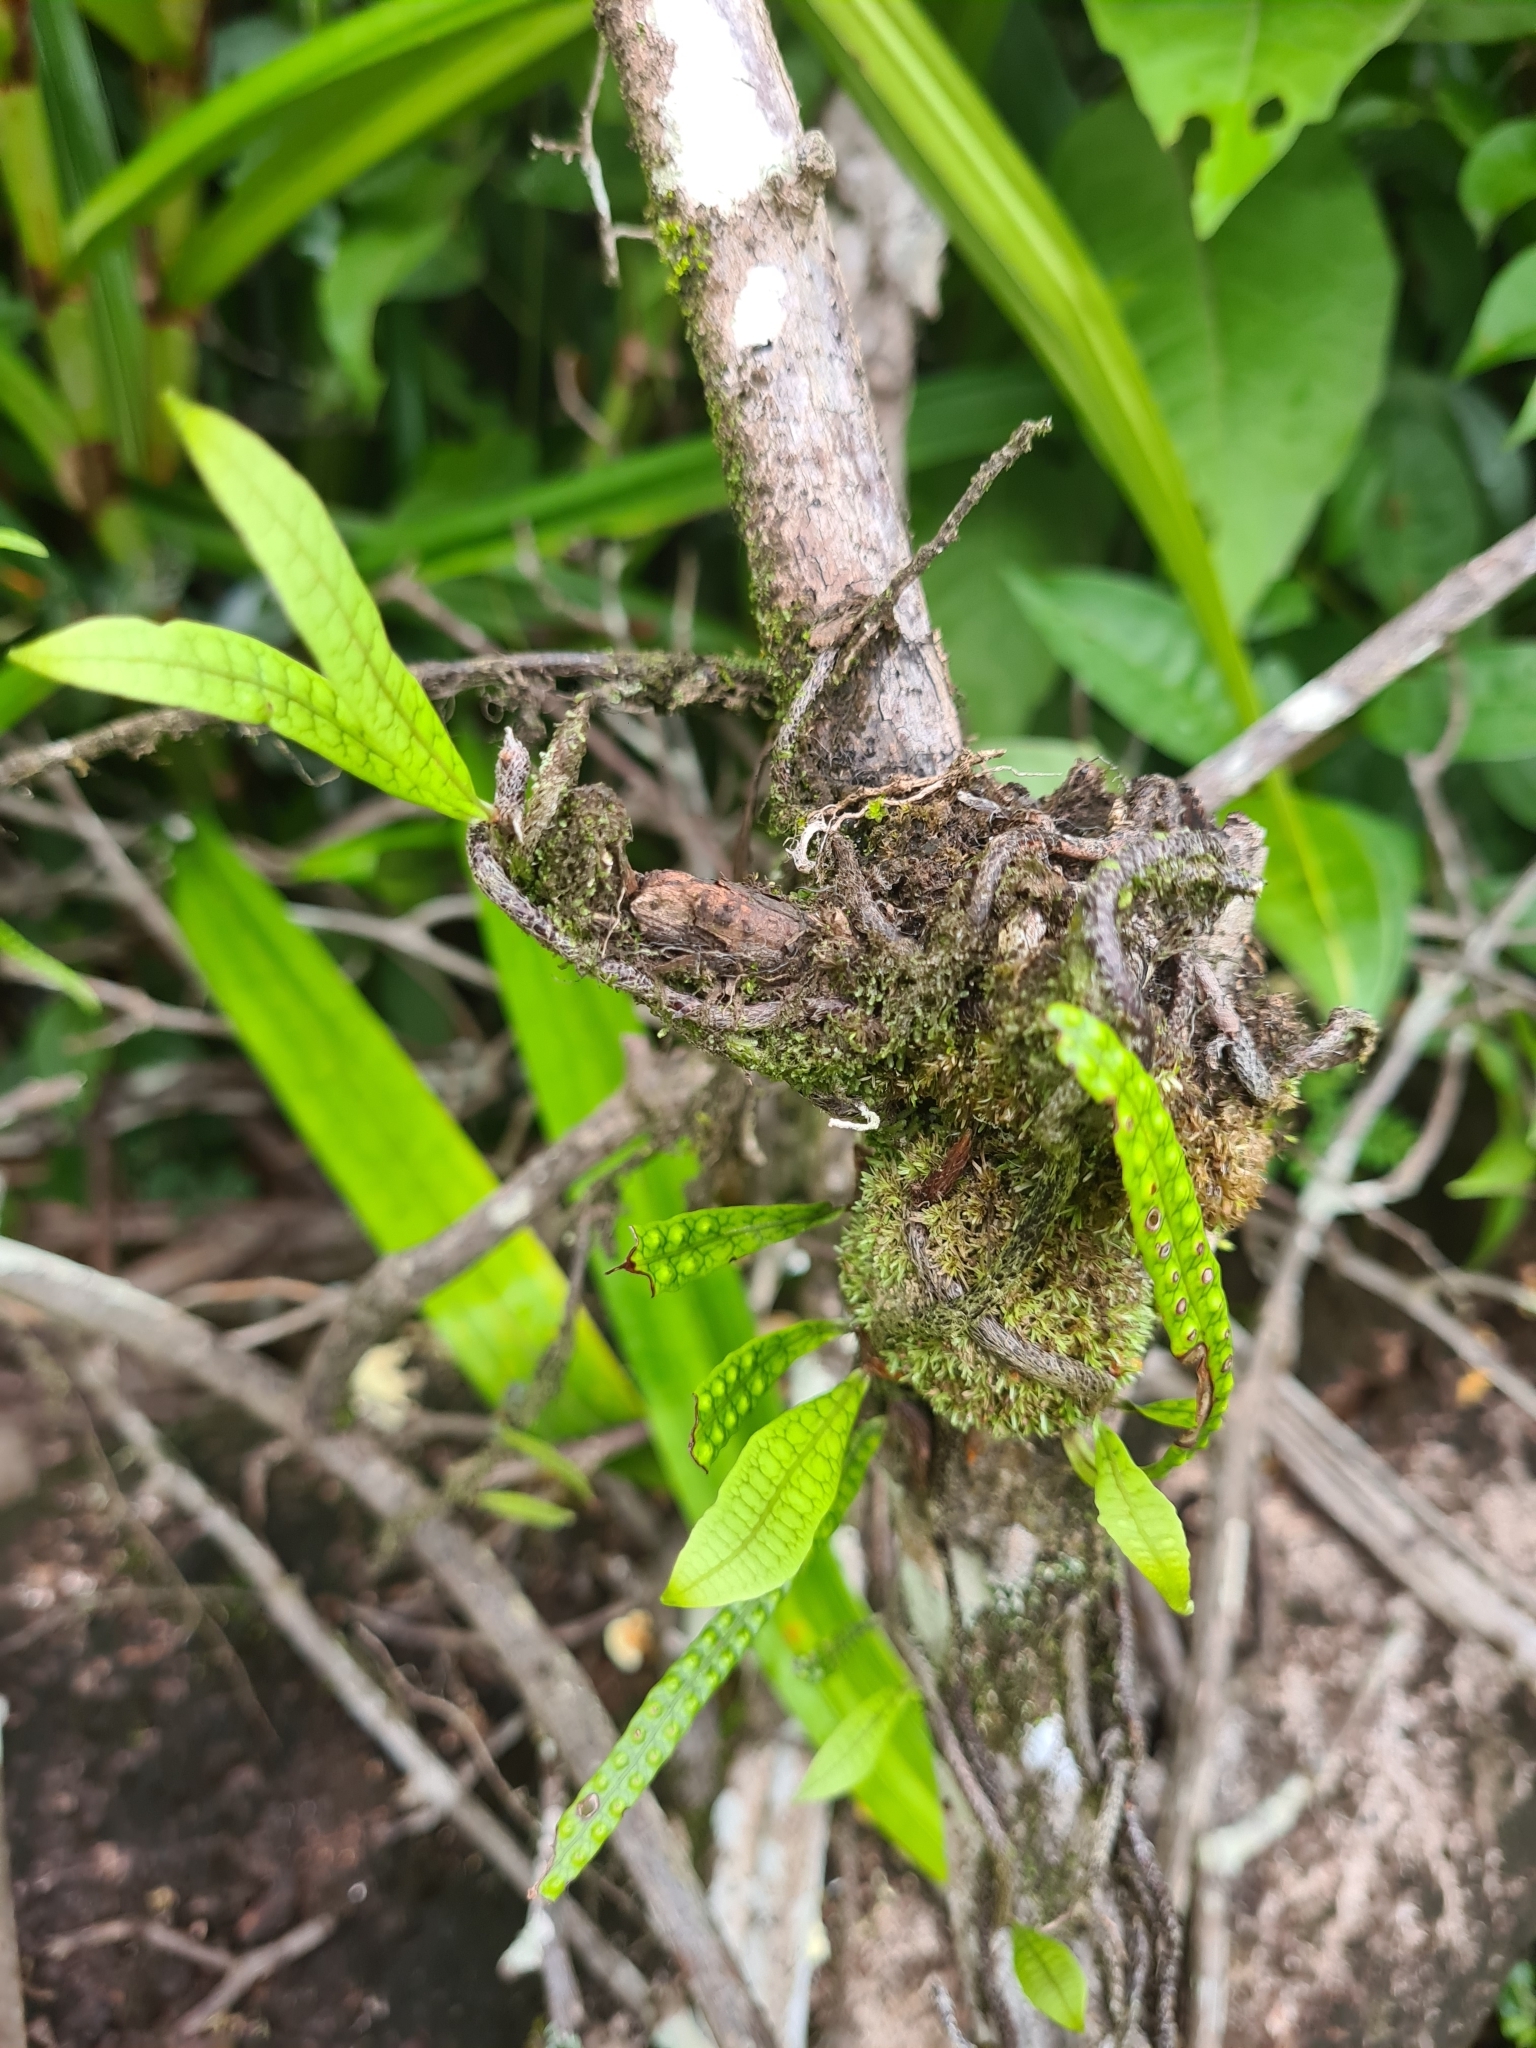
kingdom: Plantae
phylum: Tracheophyta
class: Polypodiopsida
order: Polypodiales
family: Polypodiaceae
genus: Microgramma
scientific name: Microgramma lycopodioides
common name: Bastard catclaw
